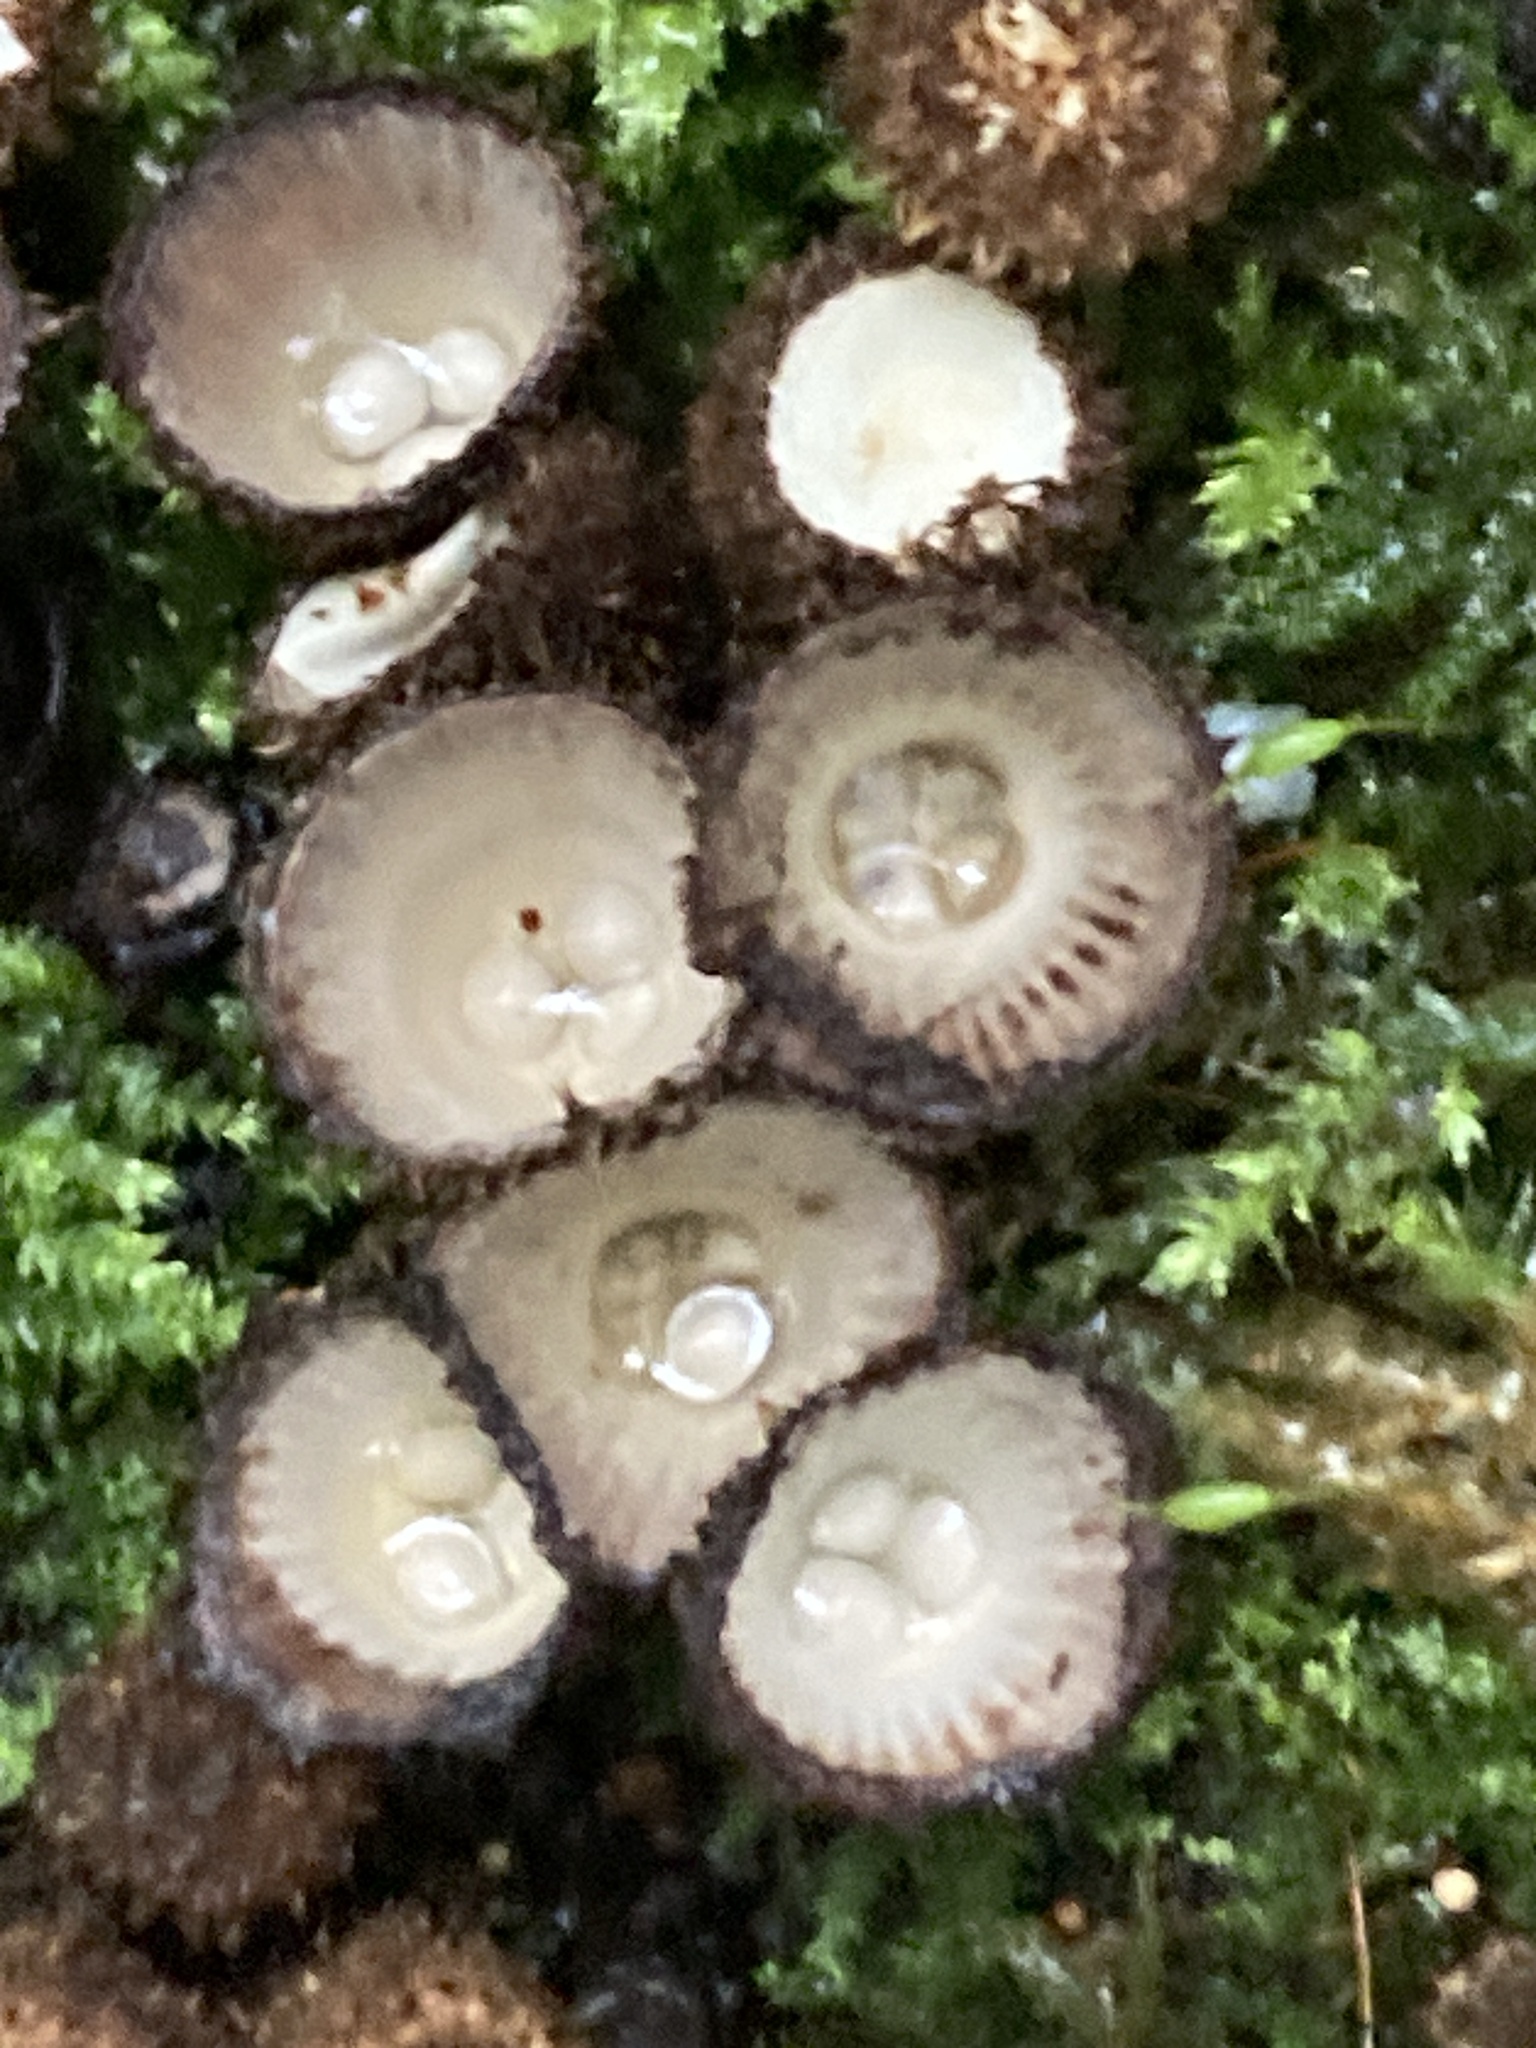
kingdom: Fungi
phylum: Basidiomycota
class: Agaricomycetes
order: Agaricales
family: Agaricaceae
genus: Cyathus
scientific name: Cyathus striatus
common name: Fluted bird's nest
